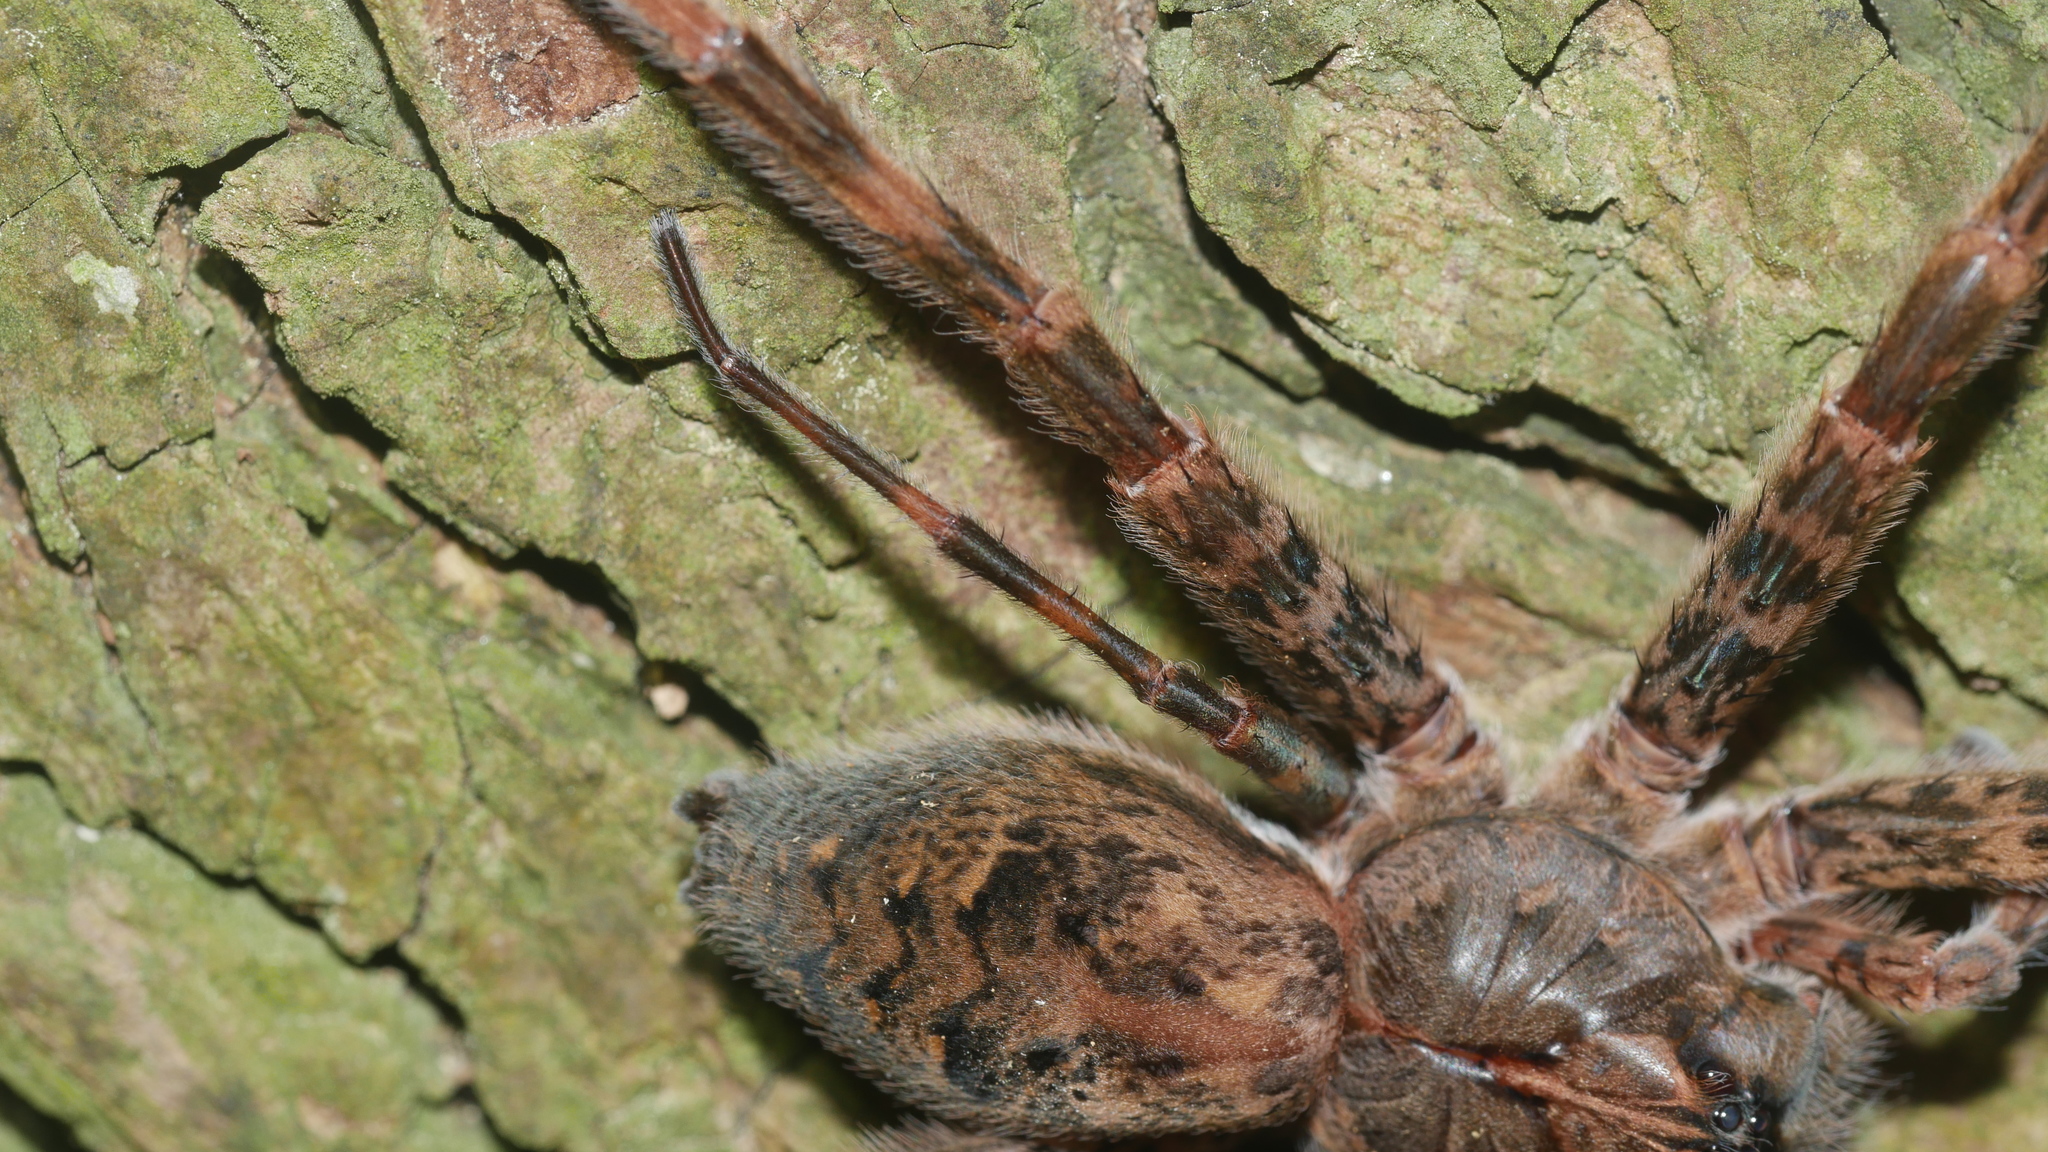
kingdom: Animalia
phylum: Arthropoda
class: Arachnida
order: Araneae
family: Pisauridae
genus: Dolomedes
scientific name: Dolomedes tenebrosus
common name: Dark fishing spider
